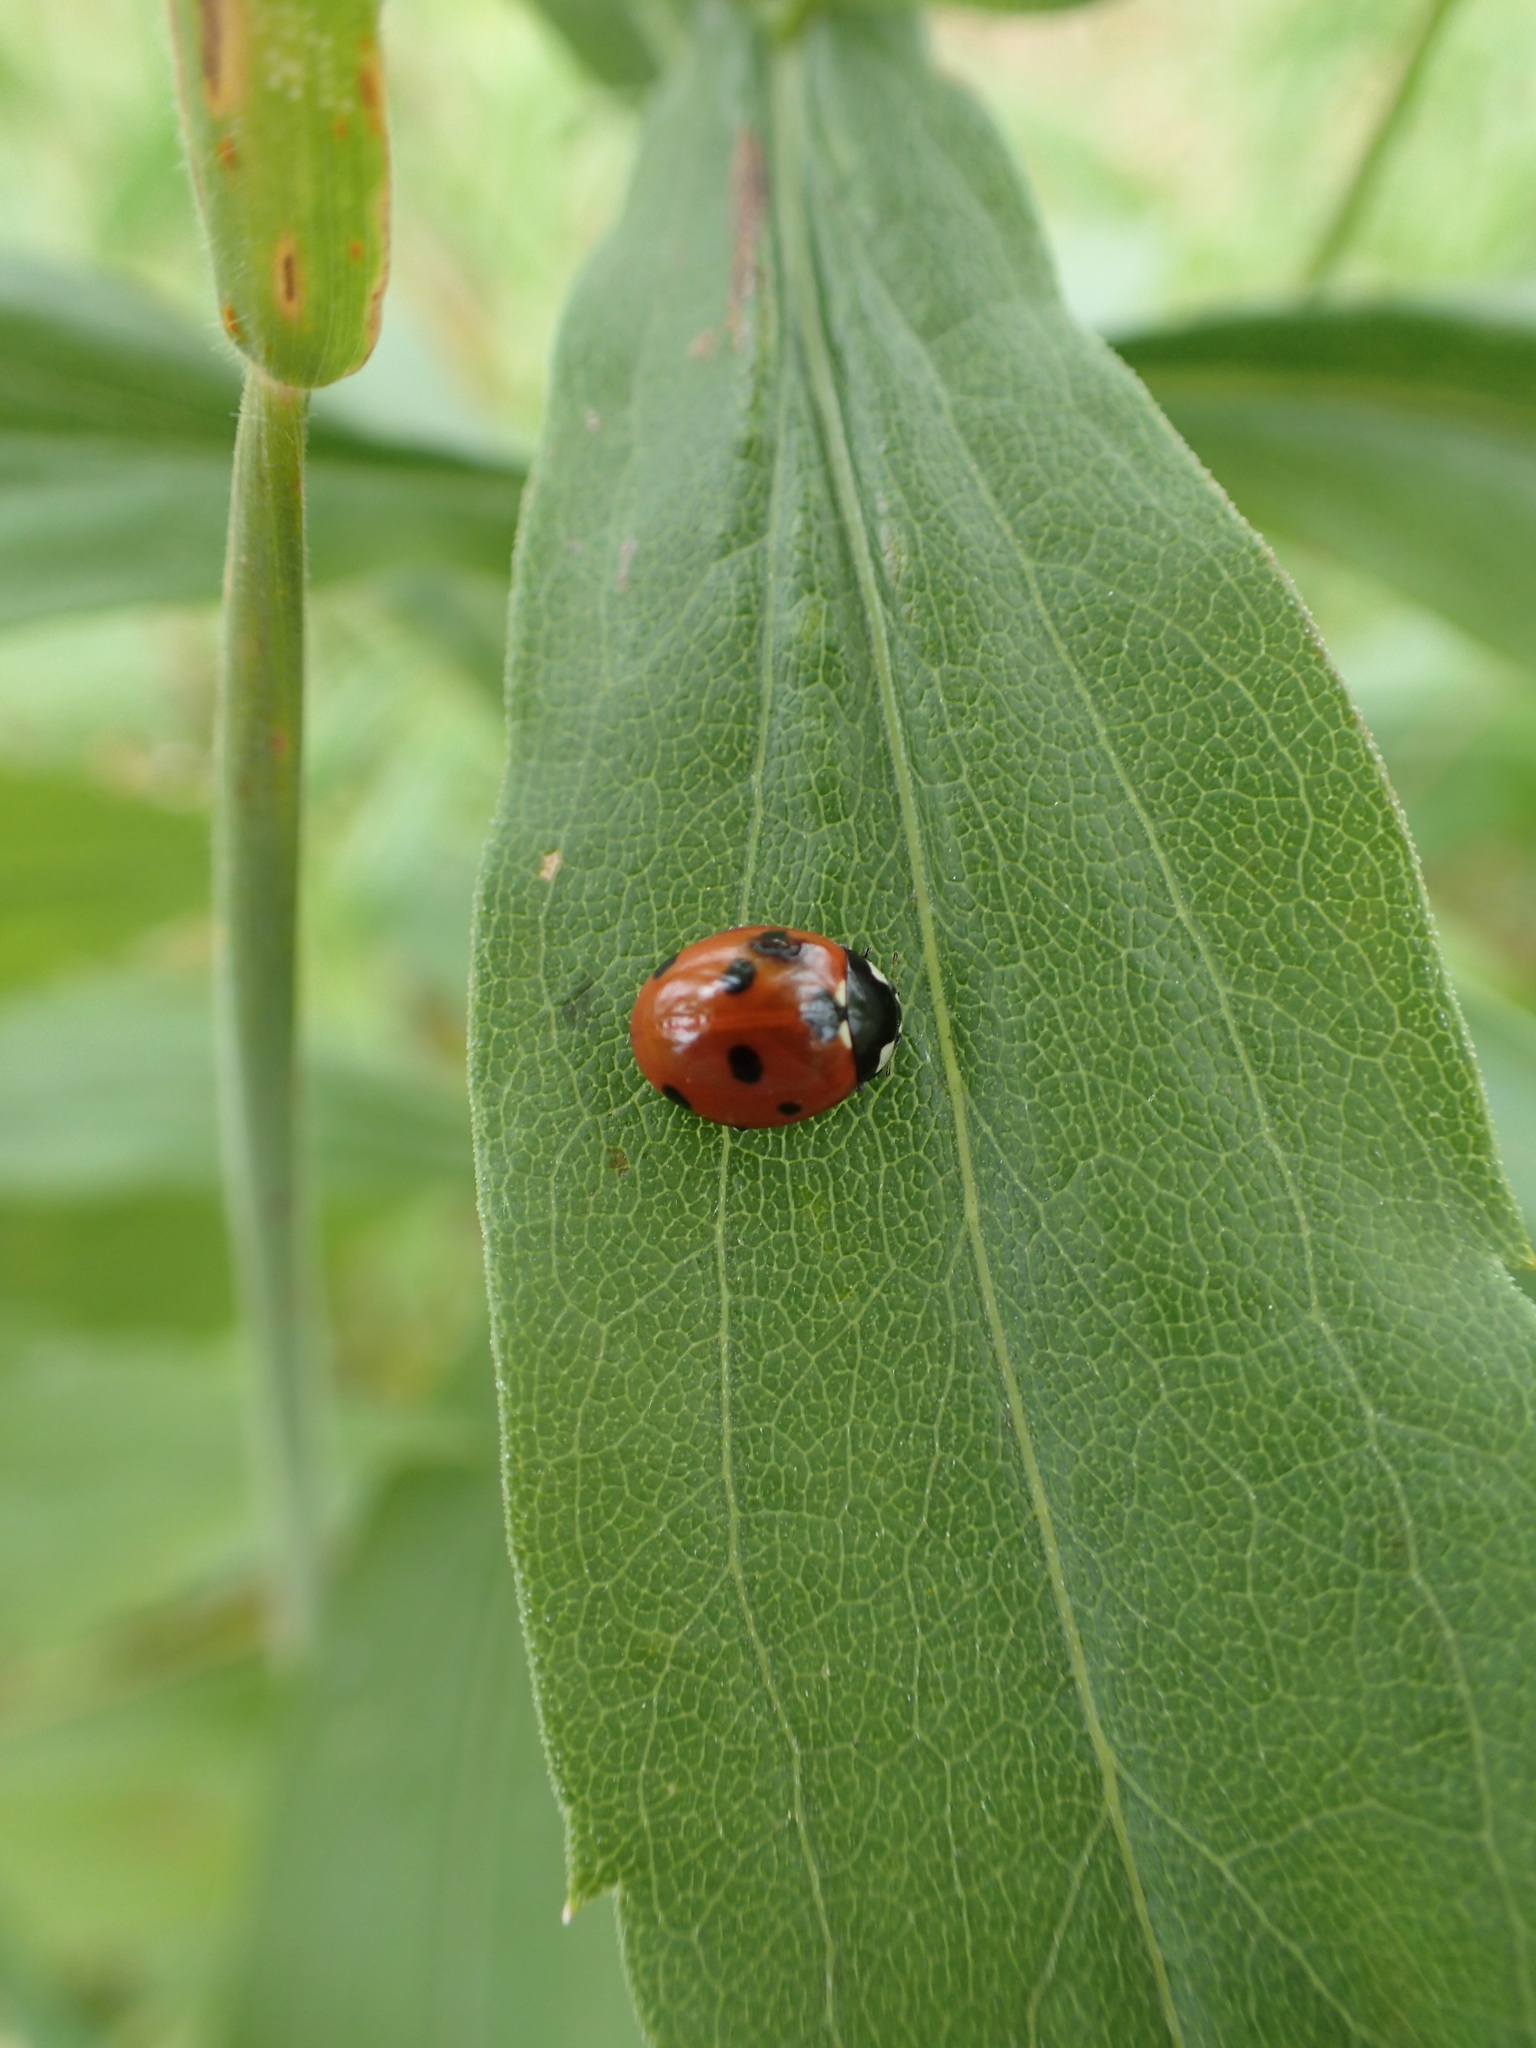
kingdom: Animalia
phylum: Arthropoda
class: Insecta
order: Coleoptera
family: Coccinellidae
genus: Coccinella
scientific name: Coccinella septempunctata
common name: Sevenspotted lady beetle
